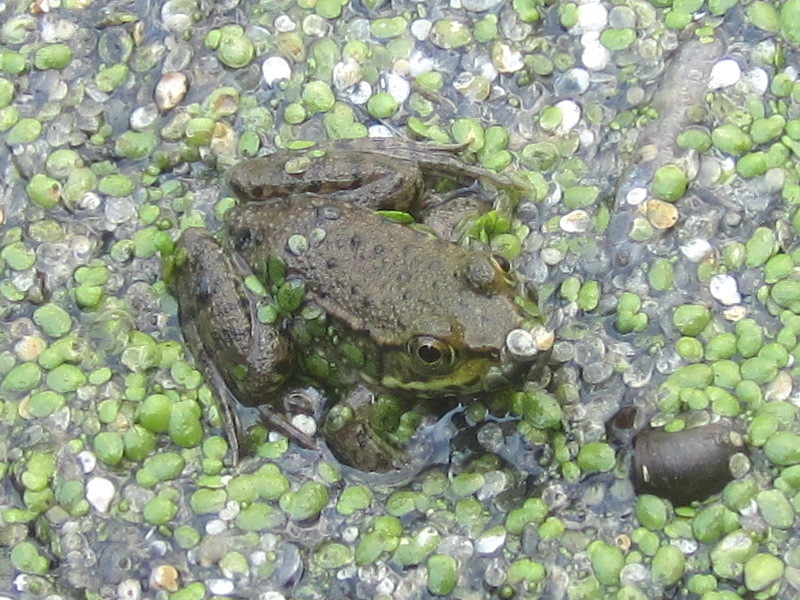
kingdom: Animalia
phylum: Chordata
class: Amphibia
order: Anura
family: Ranidae
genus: Lithobates
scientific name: Lithobates clamitans
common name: Green frog
